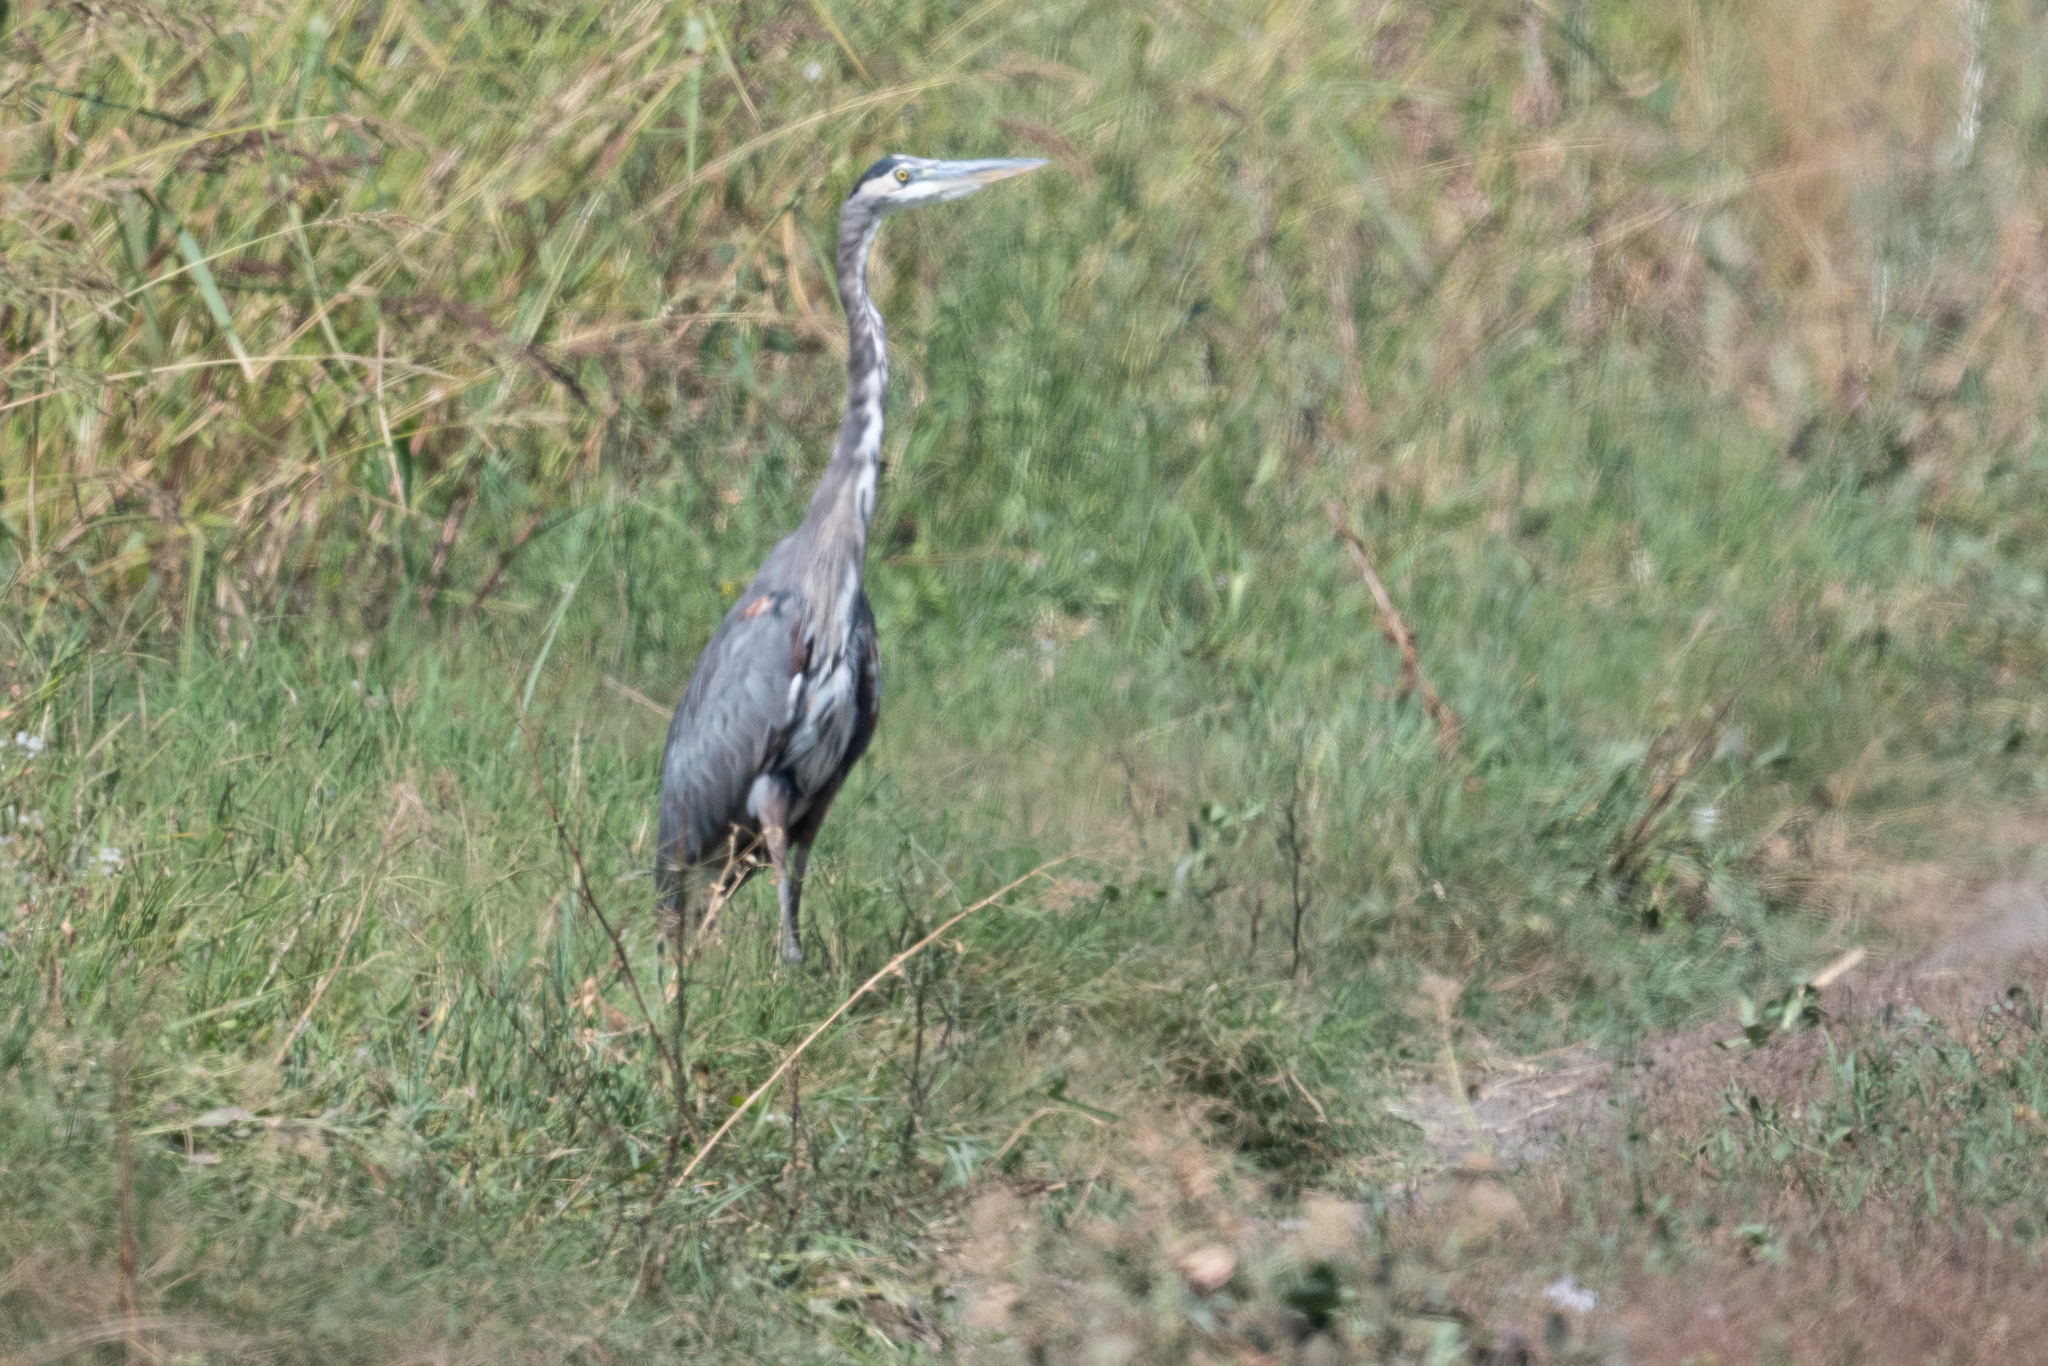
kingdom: Animalia
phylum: Chordata
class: Aves
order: Pelecaniformes
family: Ardeidae
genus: Ardea
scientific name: Ardea herodias
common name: Great blue heron
